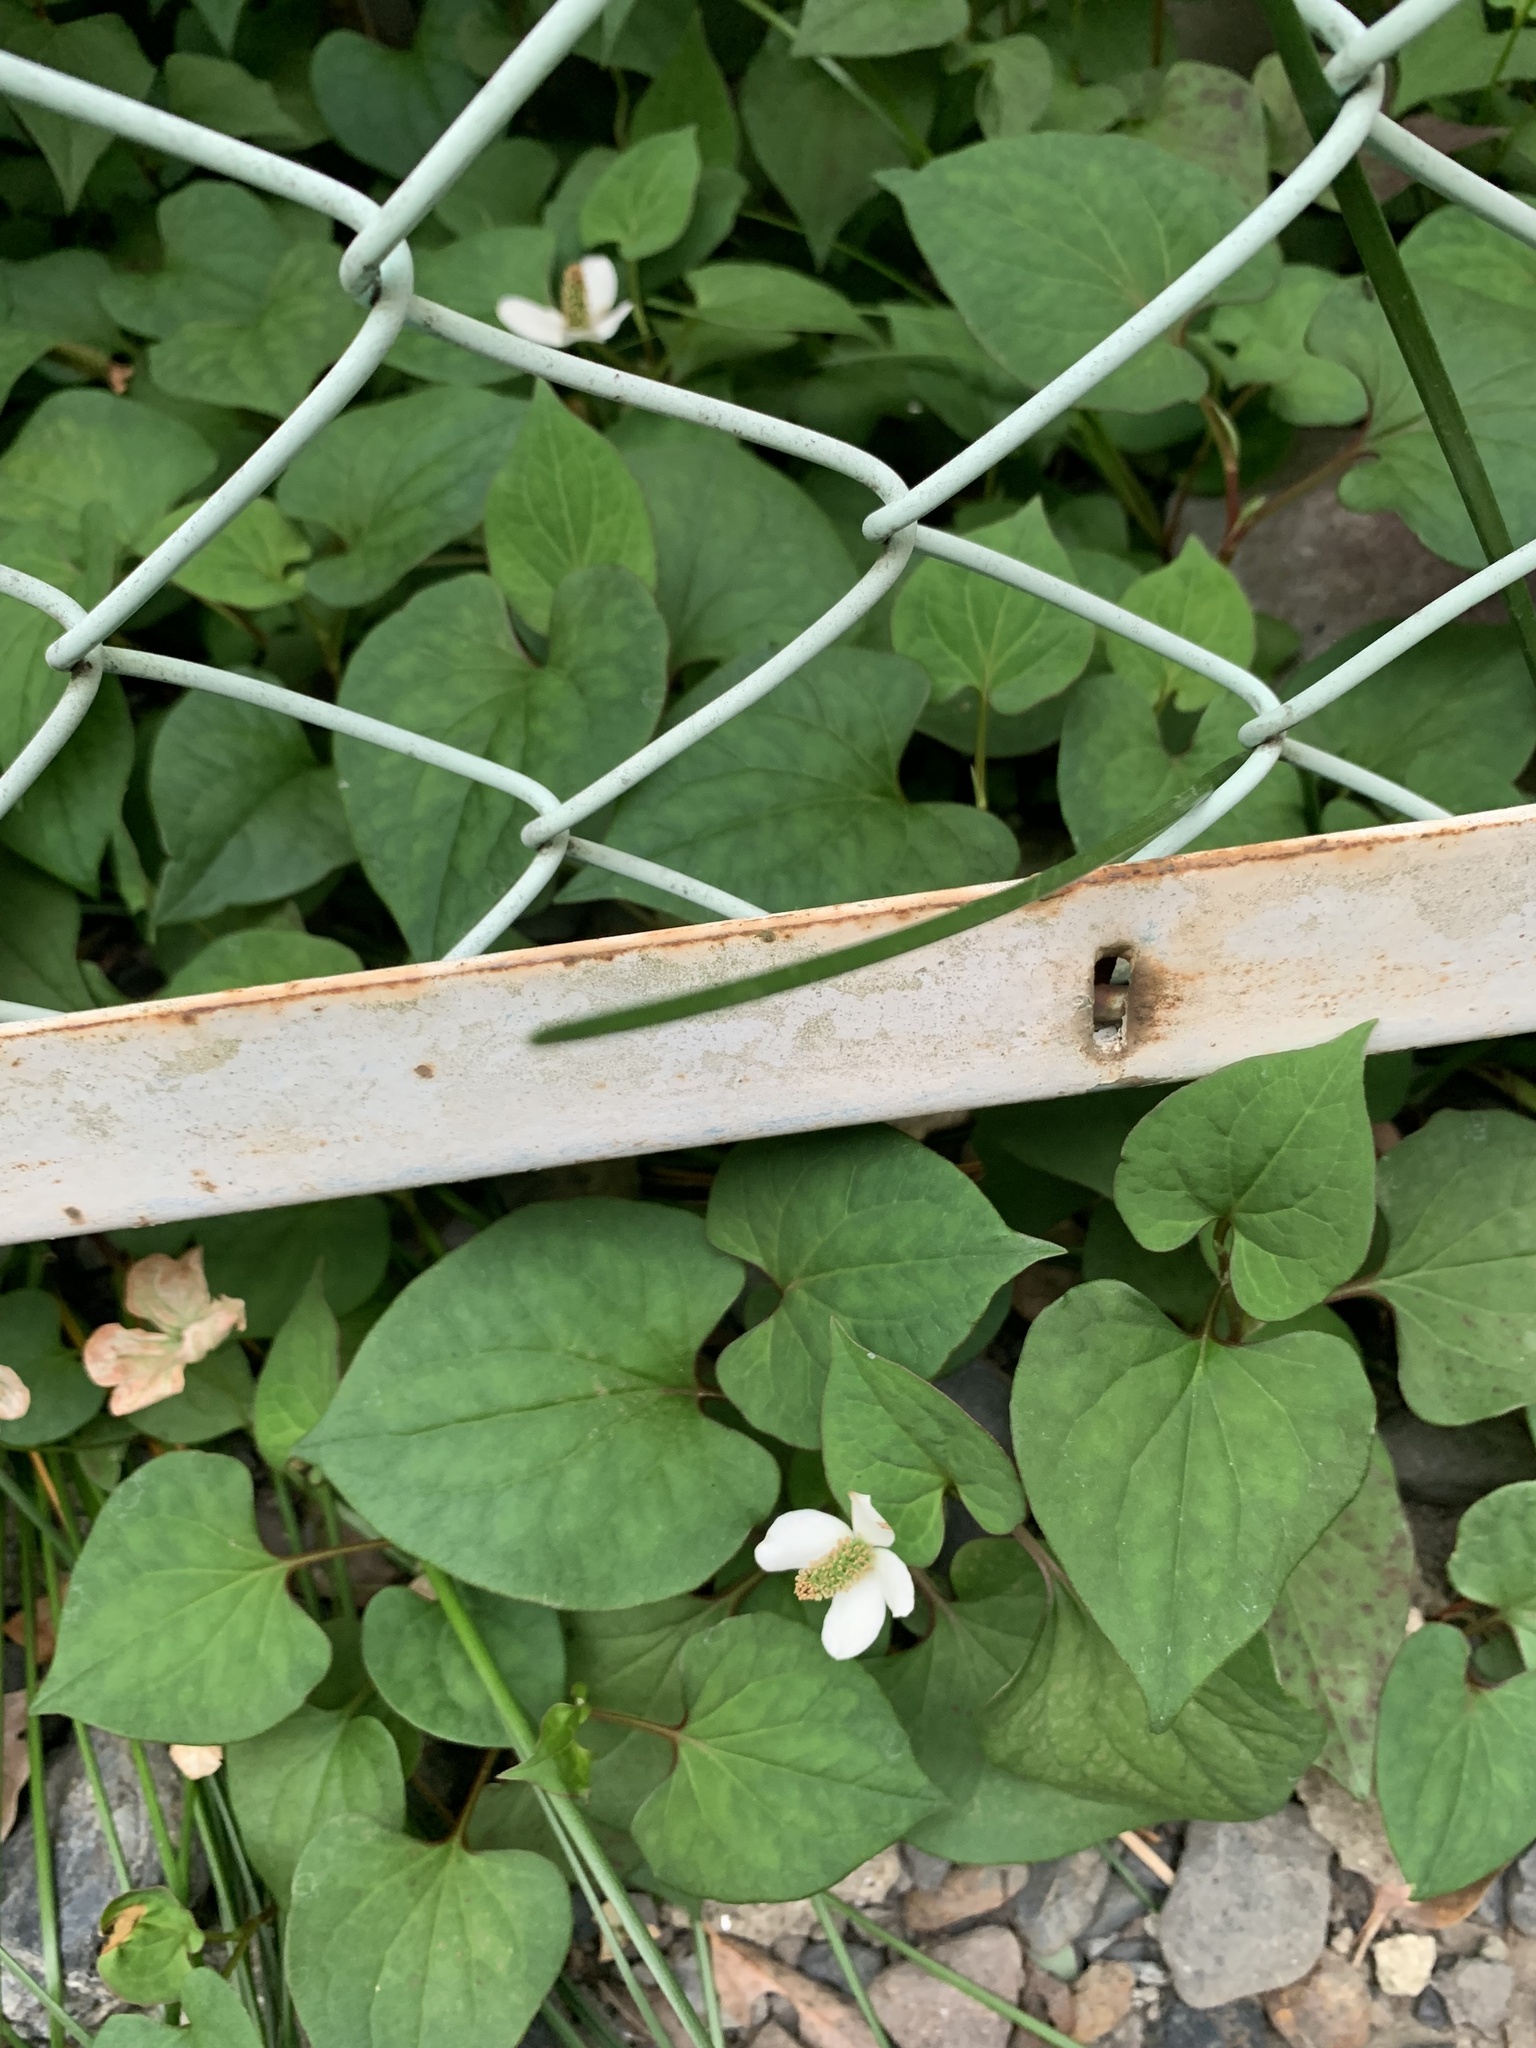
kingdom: Plantae
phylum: Tracheophyta
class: Magnoliopsida
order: Piperales
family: Saururaceae
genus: Houttuynia
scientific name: Houttuynia cordata
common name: Chameleon
